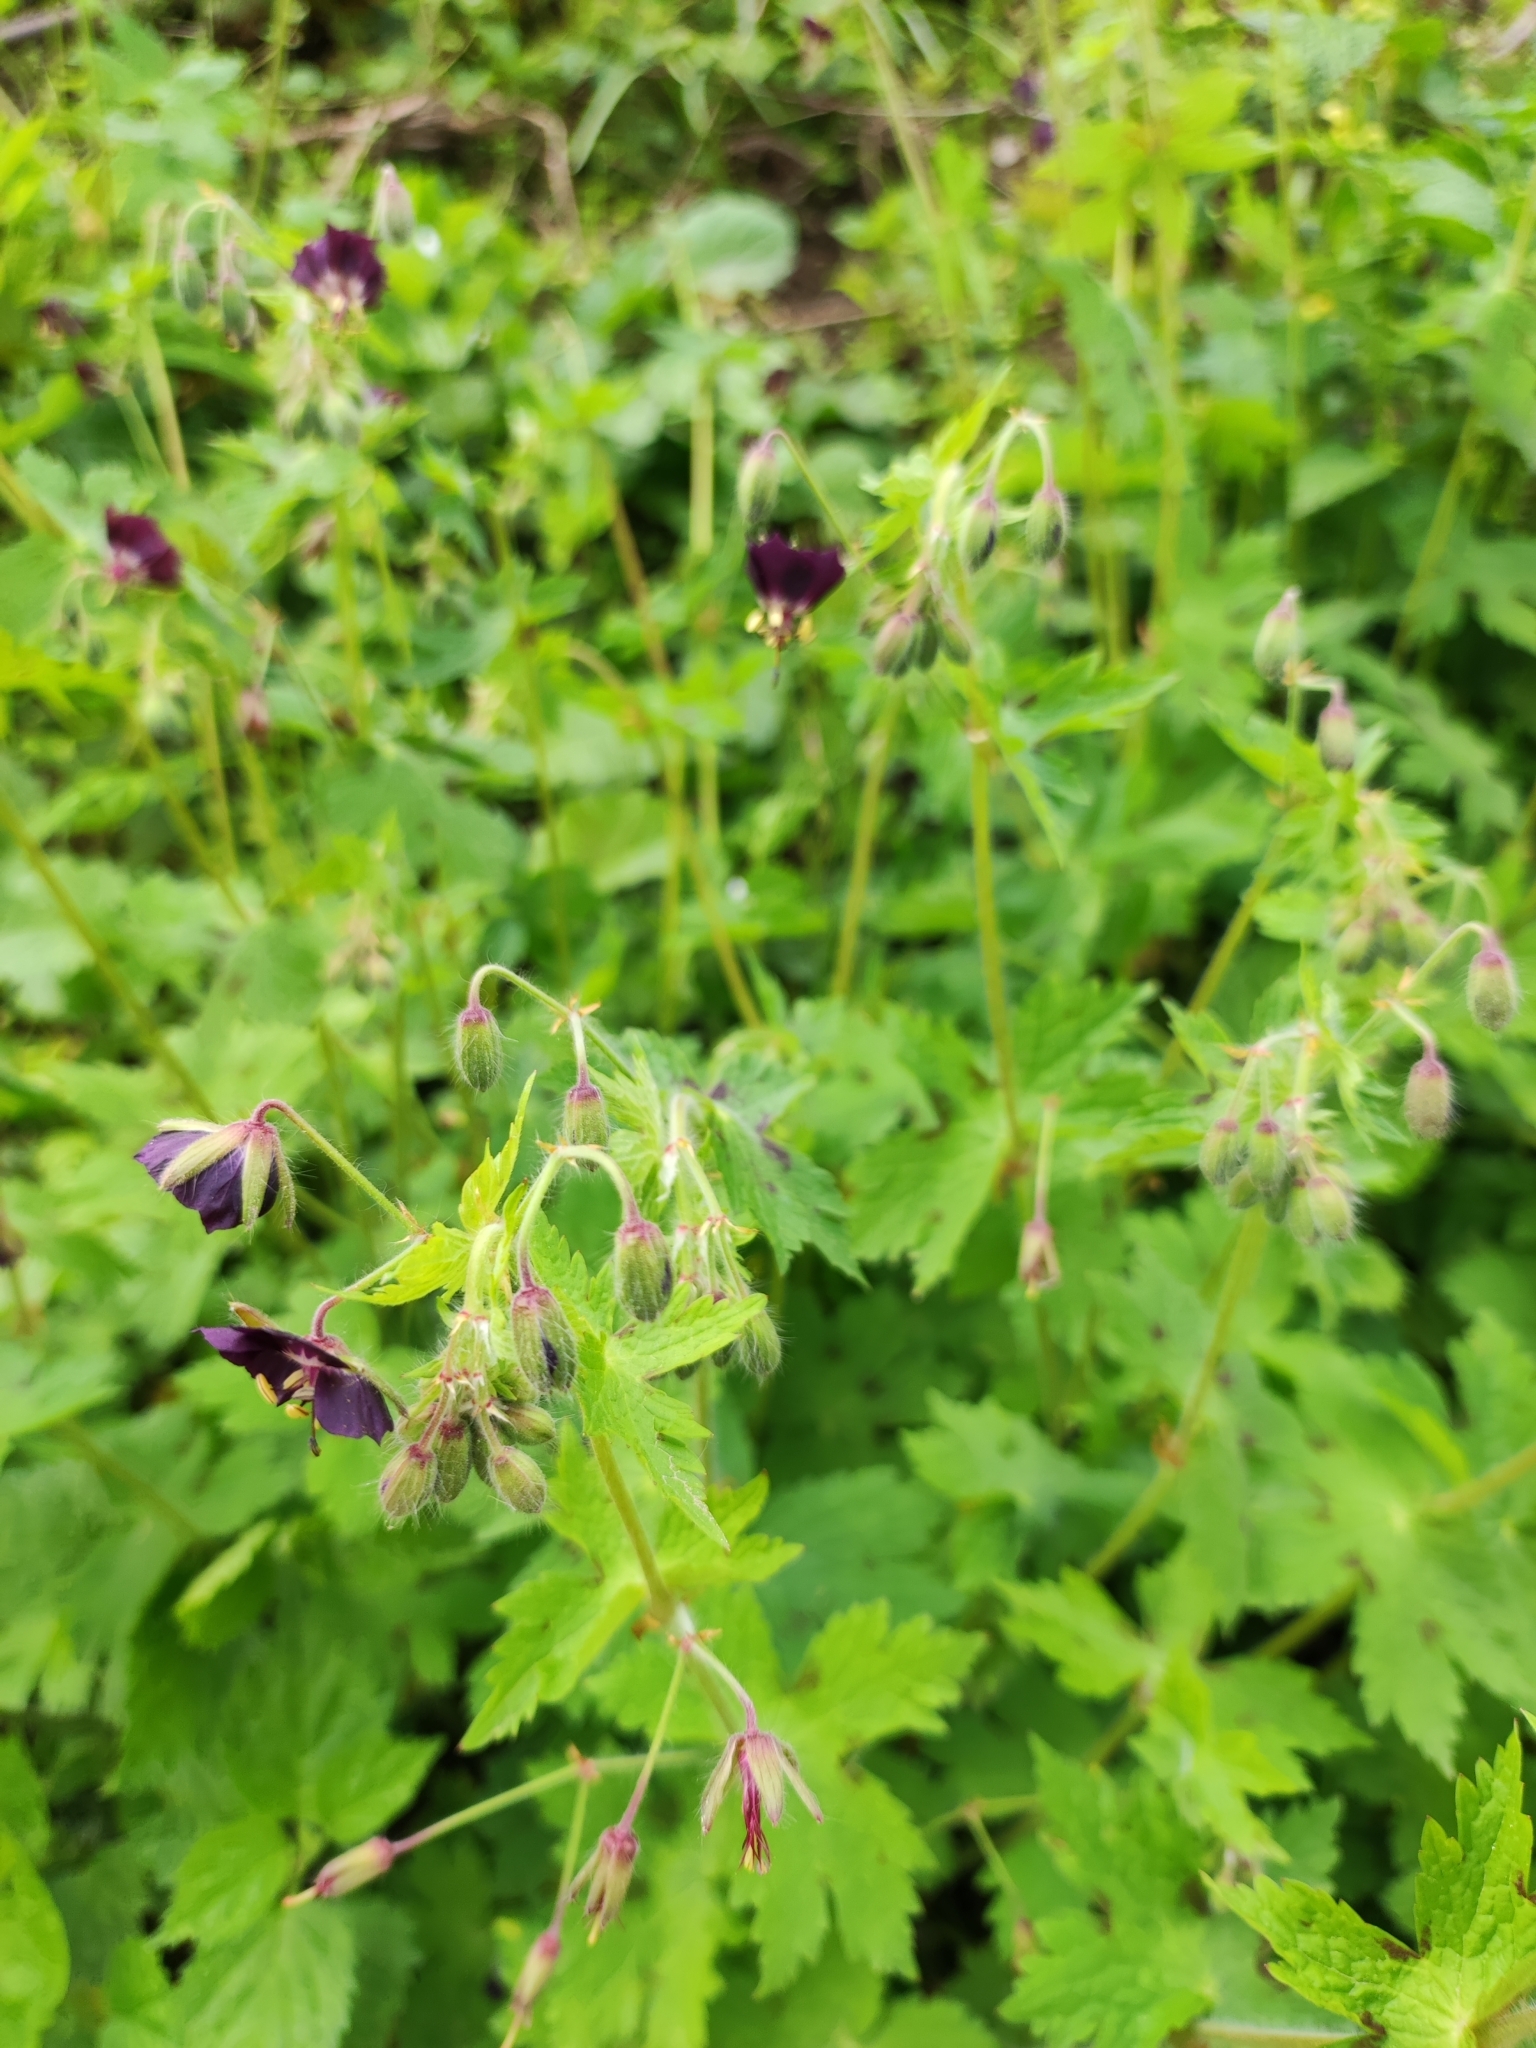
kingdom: Plantae
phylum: Tracheophyta
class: Magnoliopsida
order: Geraniales
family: Geraniaceae
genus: Geranium
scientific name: Geranium phaeum
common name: Dusky crane's-bill
